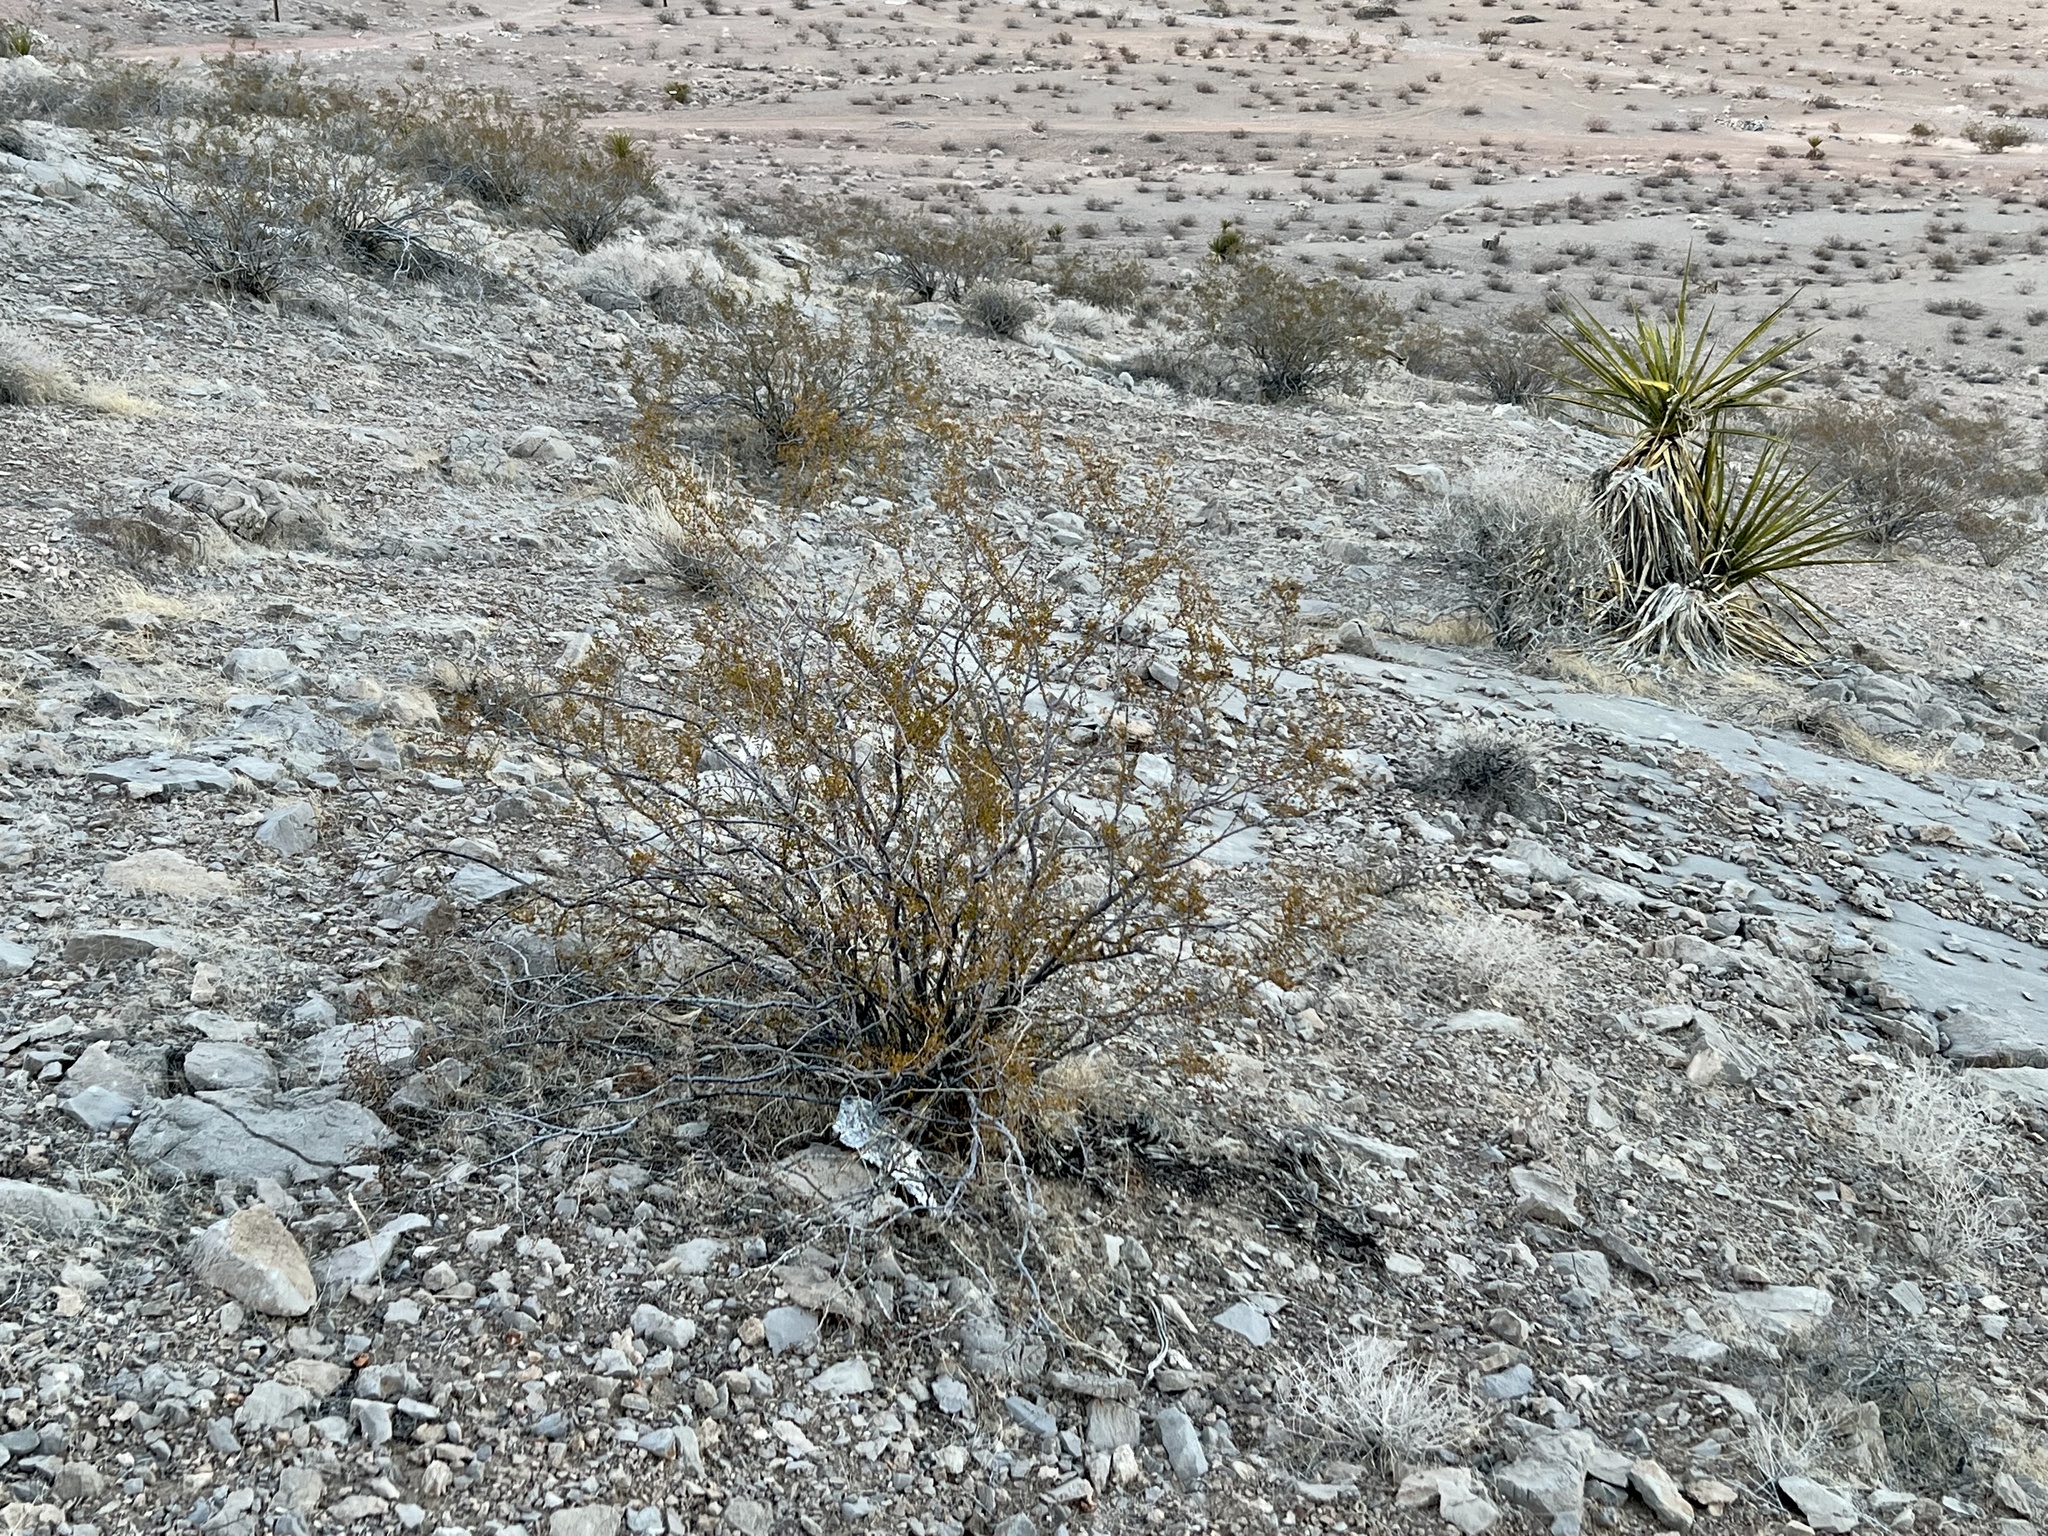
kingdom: Plantae
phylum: Tracheophyta
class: Magnoliopsida
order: Zygophyllales
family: Zygophyllaceae
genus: Larrea
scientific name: Larrea tridentata
